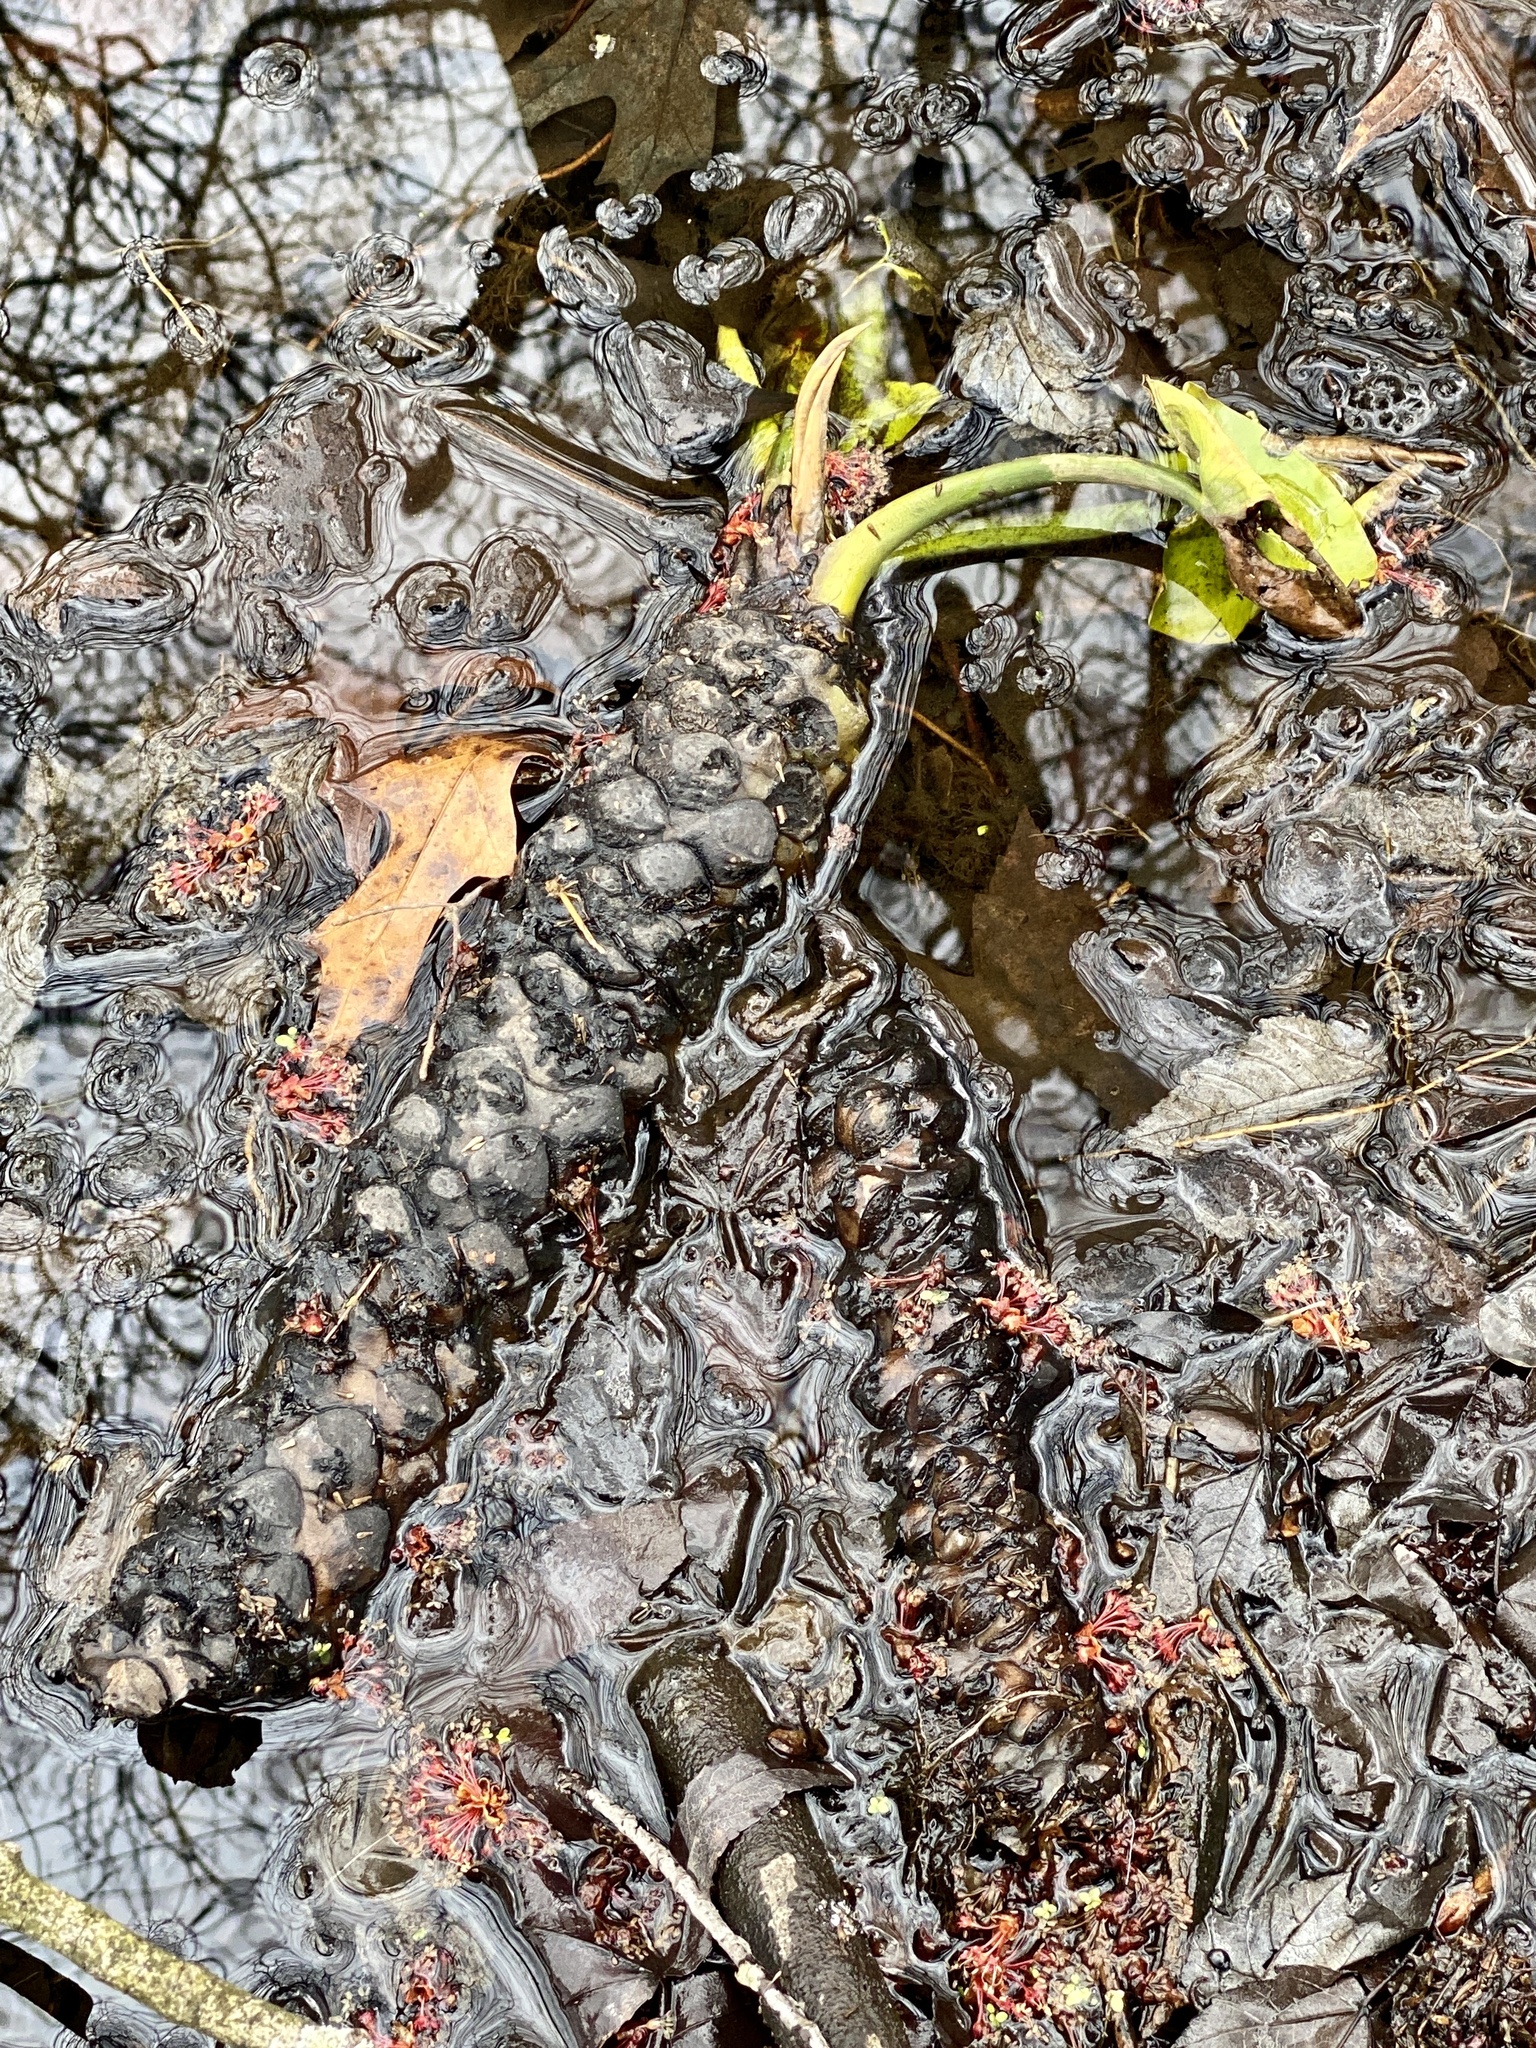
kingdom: Plantae
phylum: Tracheophyta
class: Magnoliopsida
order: Nymphaeales
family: Nymphaeaceae
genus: Nuphar
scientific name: Nuphar advena
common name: Spatter-dock
